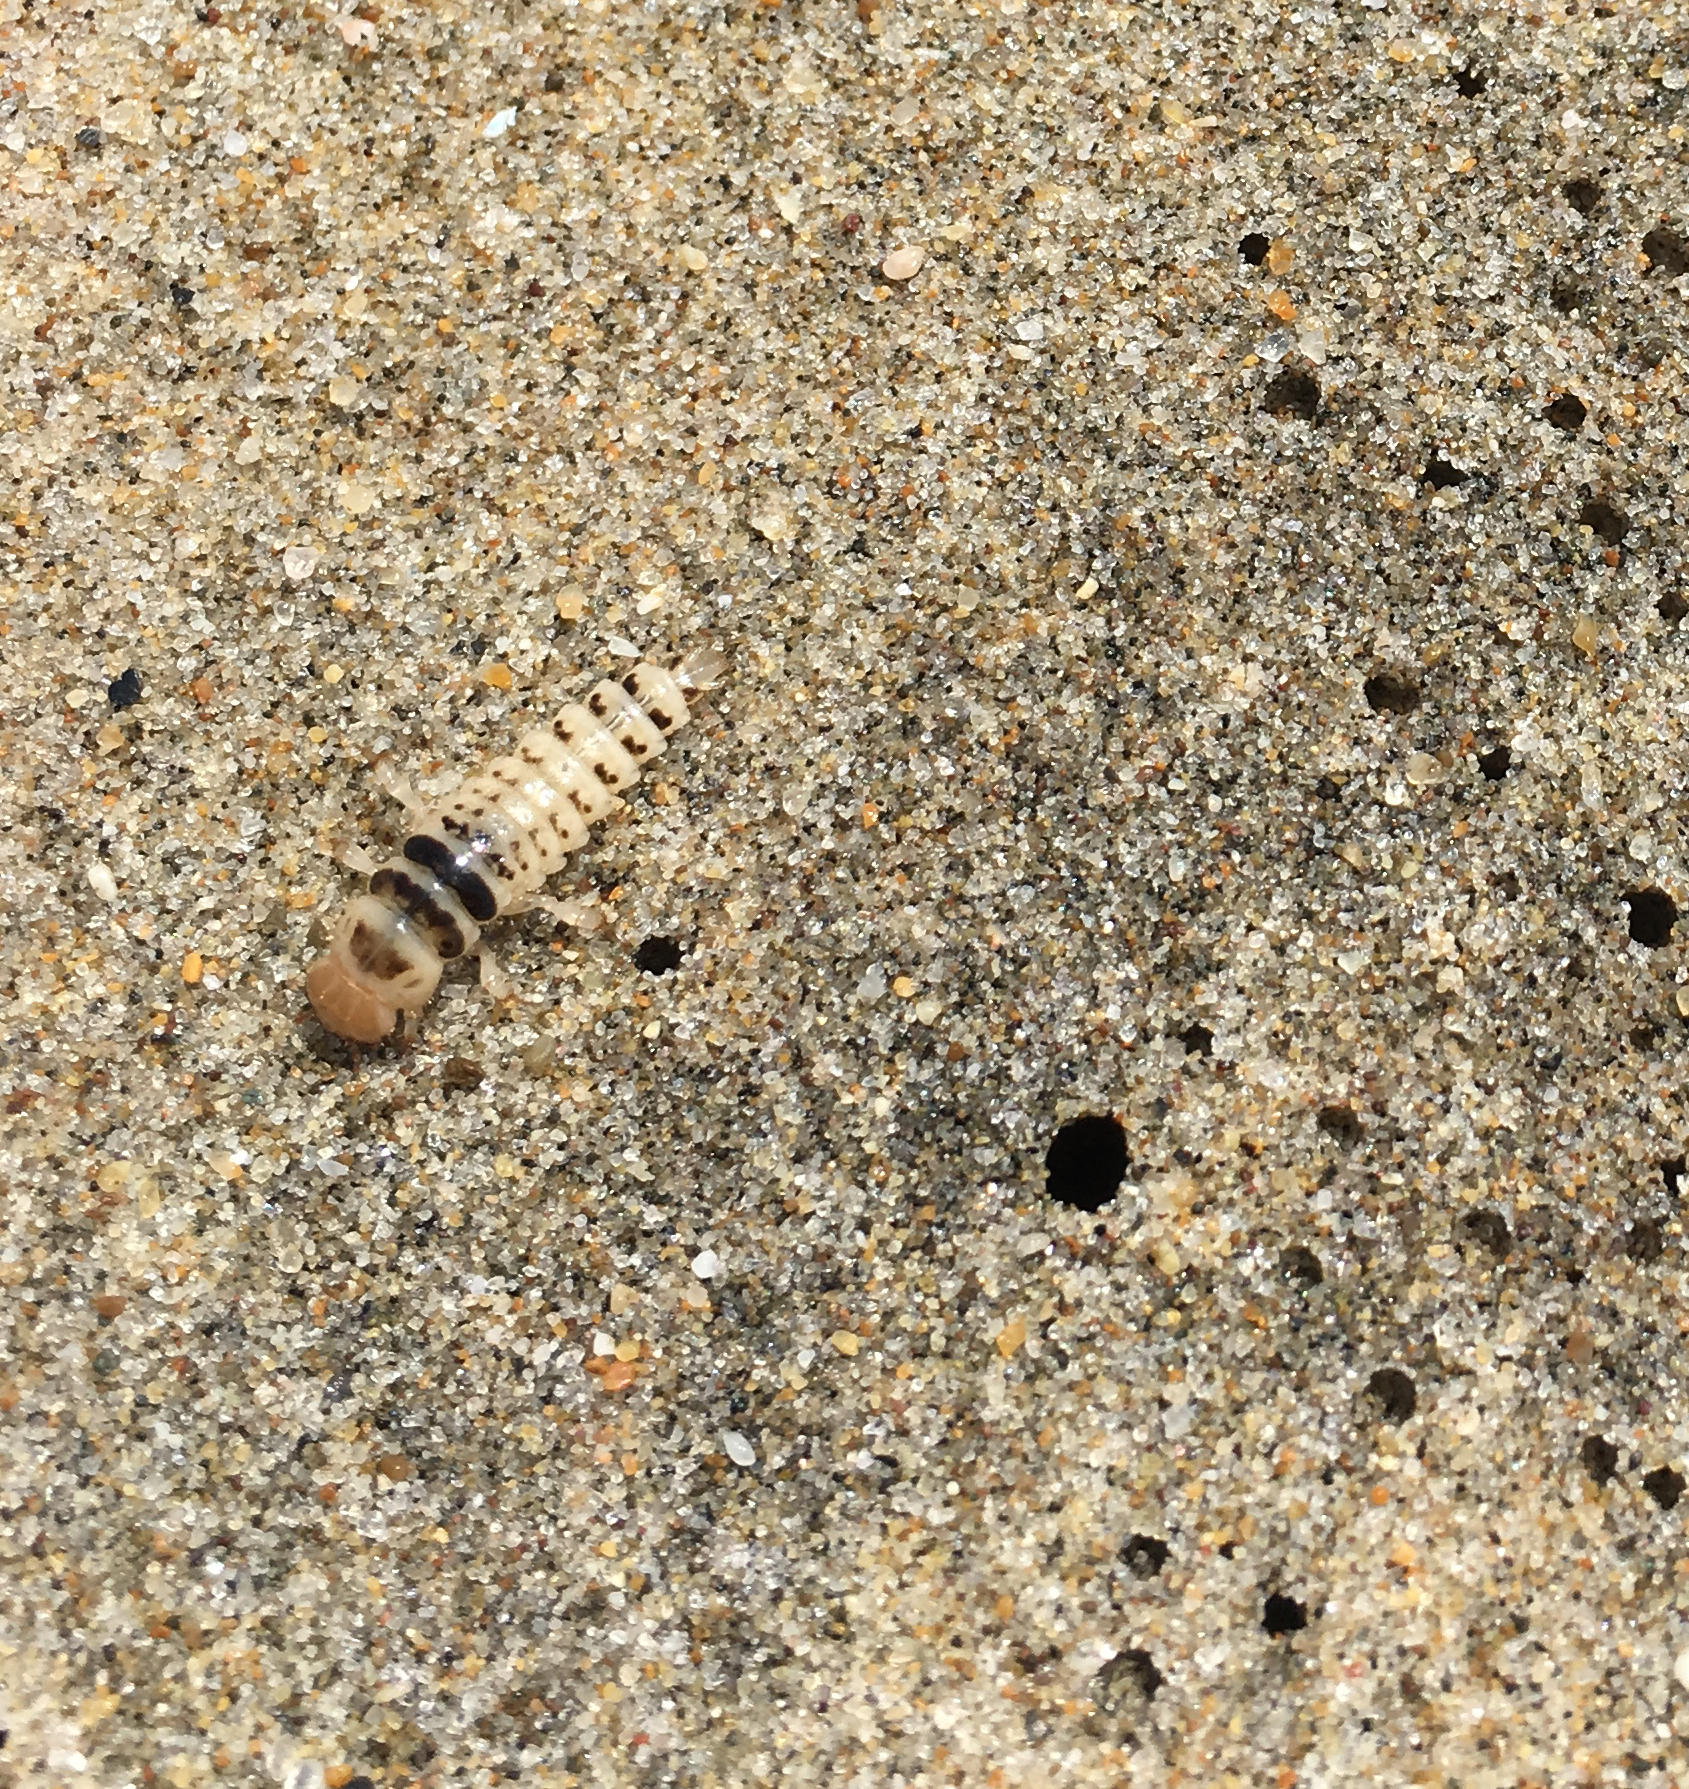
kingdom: Animalia
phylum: Arthropoda
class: Insecta
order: Coleoptera
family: Staphylinidae
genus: Thinopinus
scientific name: Thinopinus pictus
